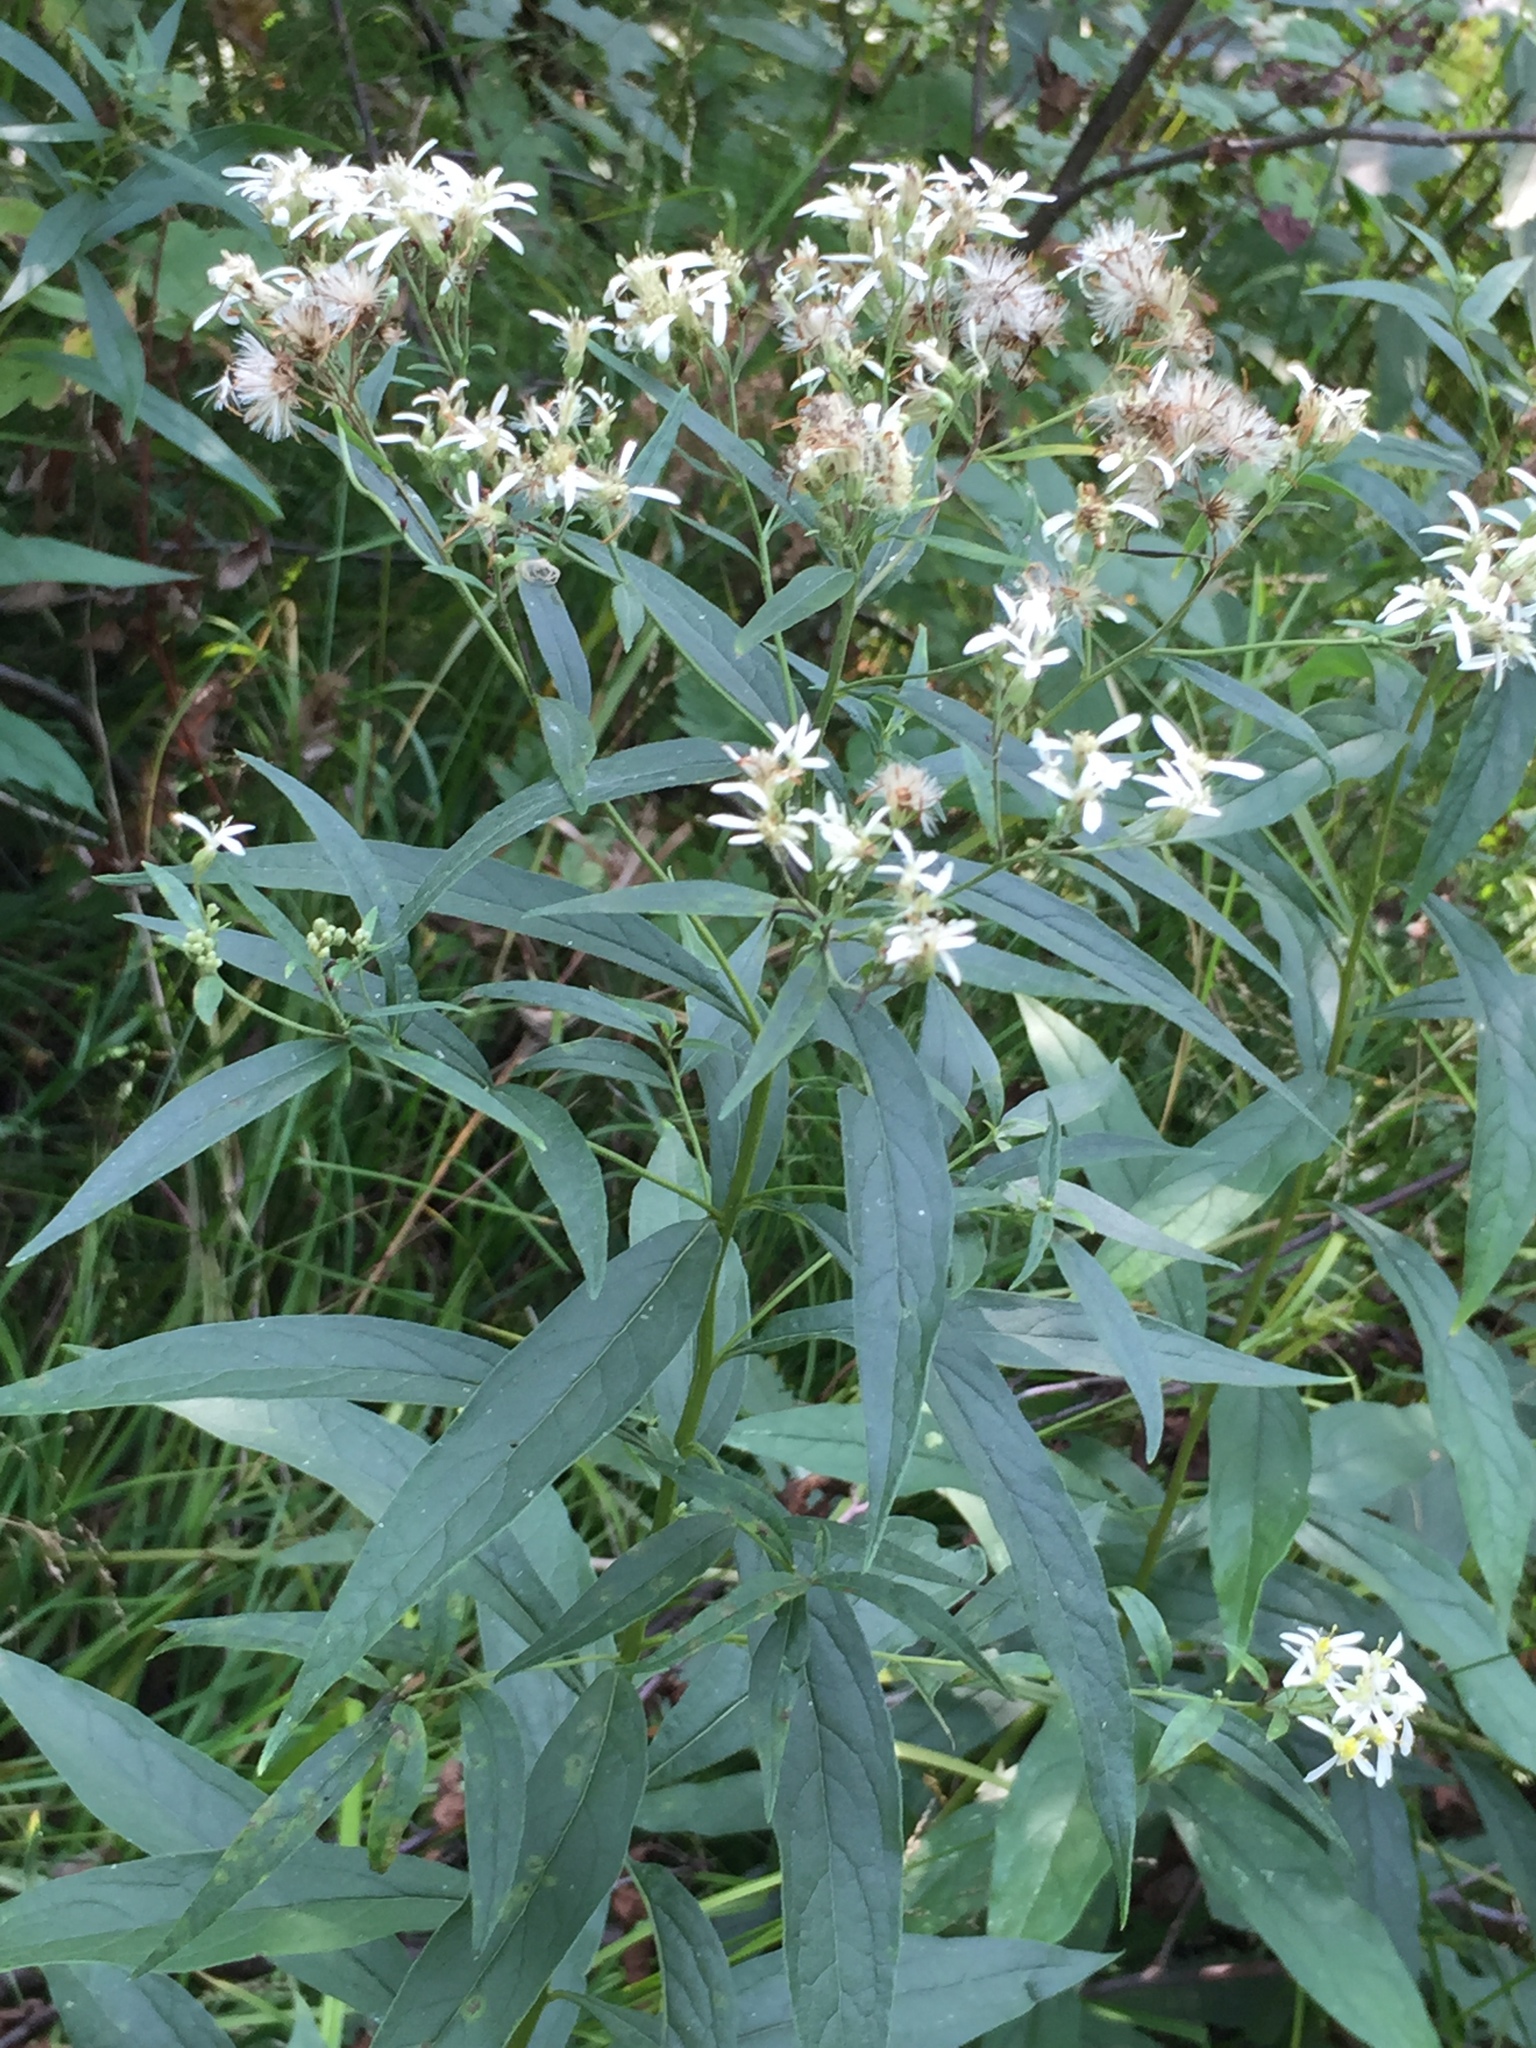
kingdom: Plantae
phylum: Tracheophyta
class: Magnoliopsida
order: Asterales
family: Asteraceae
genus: Doellingeria
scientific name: Doellingeria umbellata
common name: Flat-top white aster
